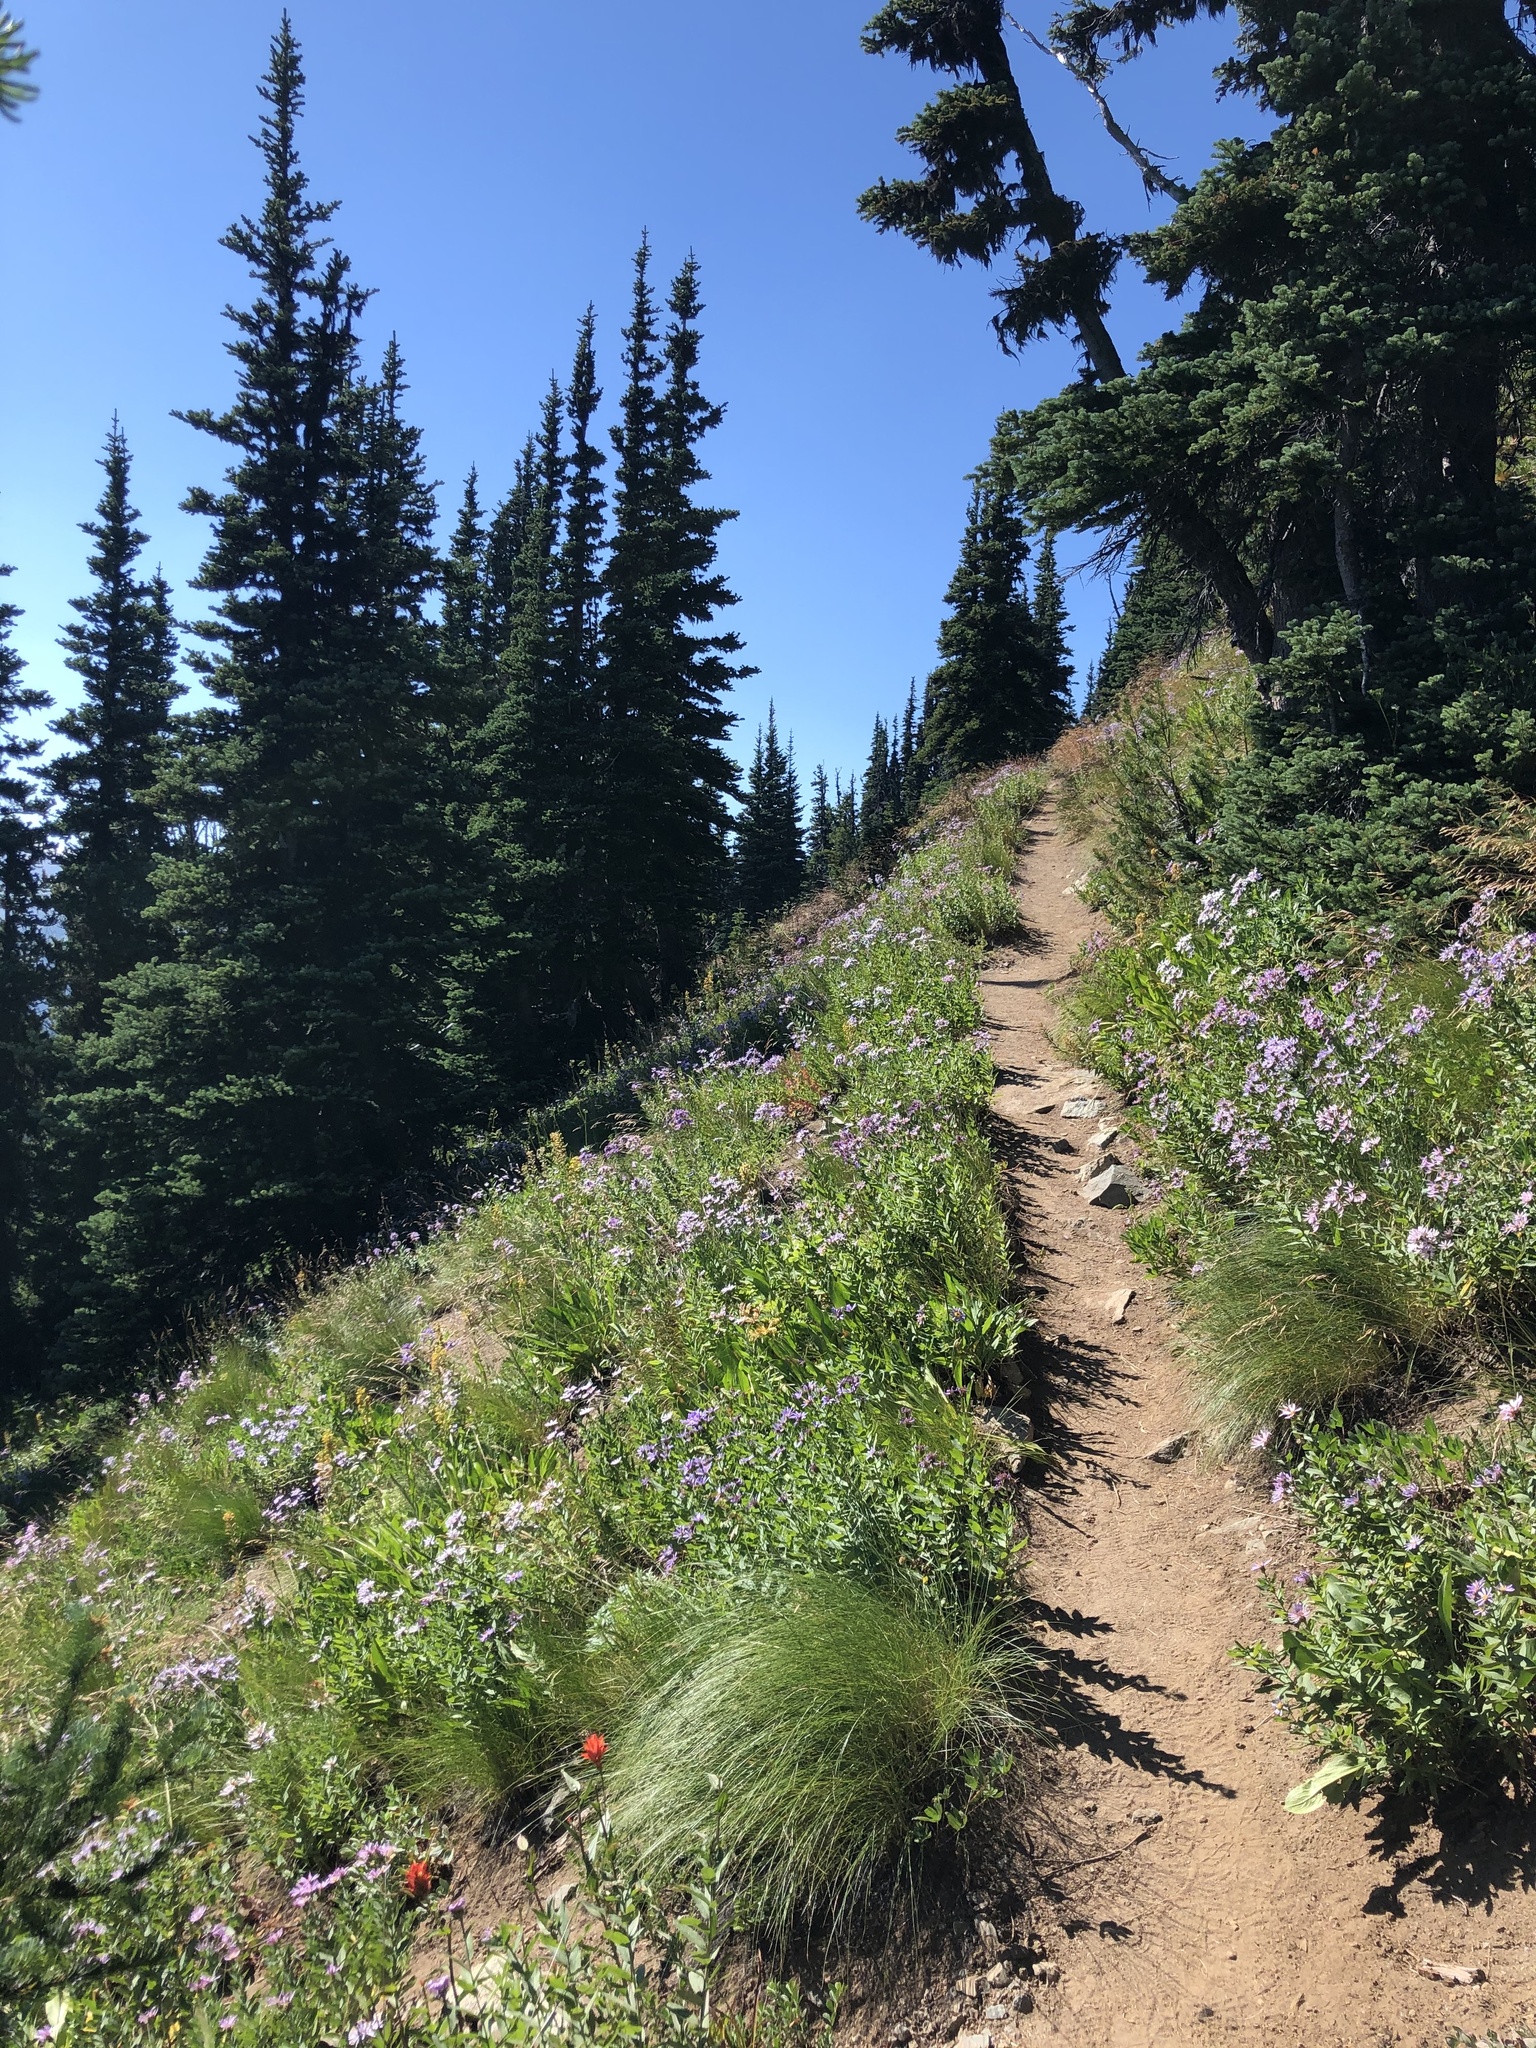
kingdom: Plantae
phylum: Tracheophyta
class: Pinopsida
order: Pinales
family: Pinaceae
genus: Abies
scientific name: Abies lasiocarpa
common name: Subalpine fir
